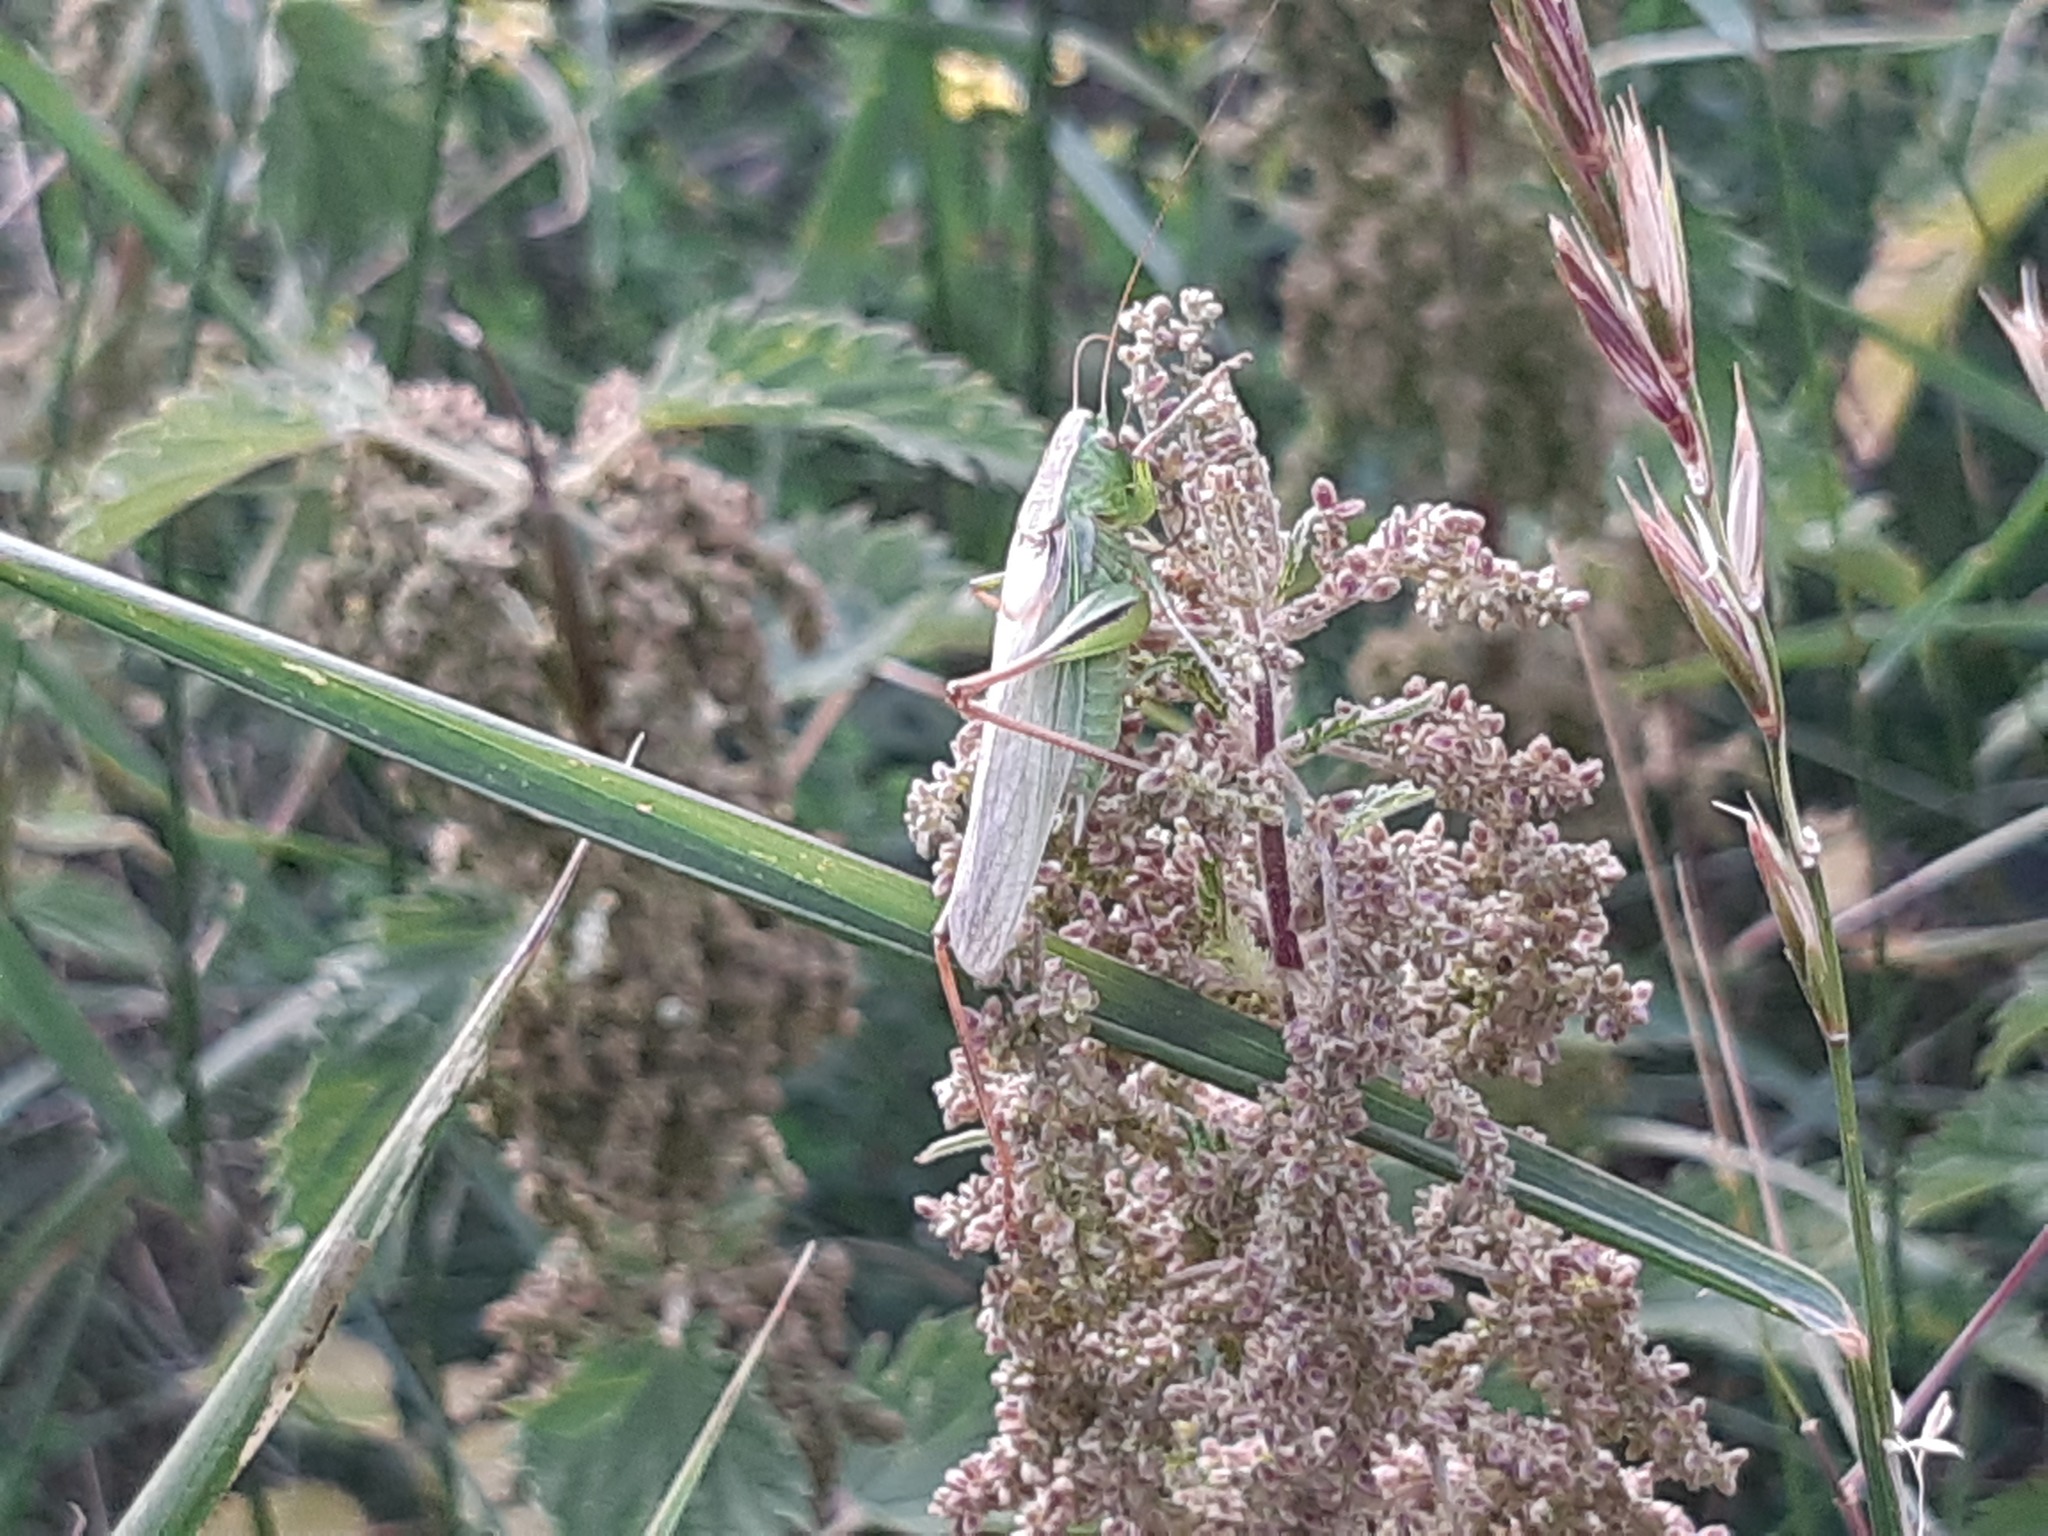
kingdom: Animalia
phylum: Arthropoda
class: Insecta
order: Orthoptera
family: Tettigoniidae
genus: Bicolorana
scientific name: Bicolorana bicolor
